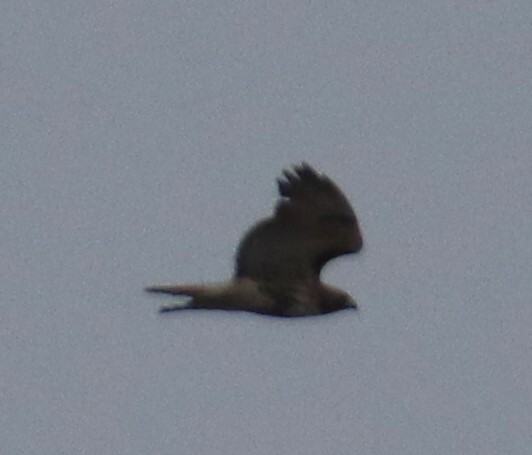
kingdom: Animalia
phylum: Chordata
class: Aves
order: Accipitriformes
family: Accipitridae
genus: Buteo
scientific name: Buteo jamaicensis
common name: Red-tailed hawk
